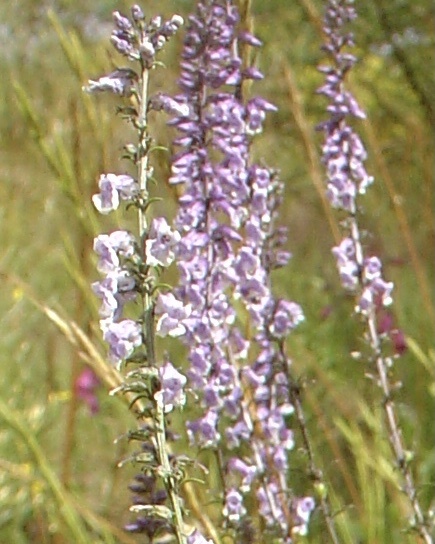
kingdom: Plantae
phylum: Tracheophyta
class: Magnoliopsida
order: Lamiales
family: Plantaginaceae
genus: Anarrhinum
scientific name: Anarrhinum bellidifolium
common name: Daisy-leaved toadflax
